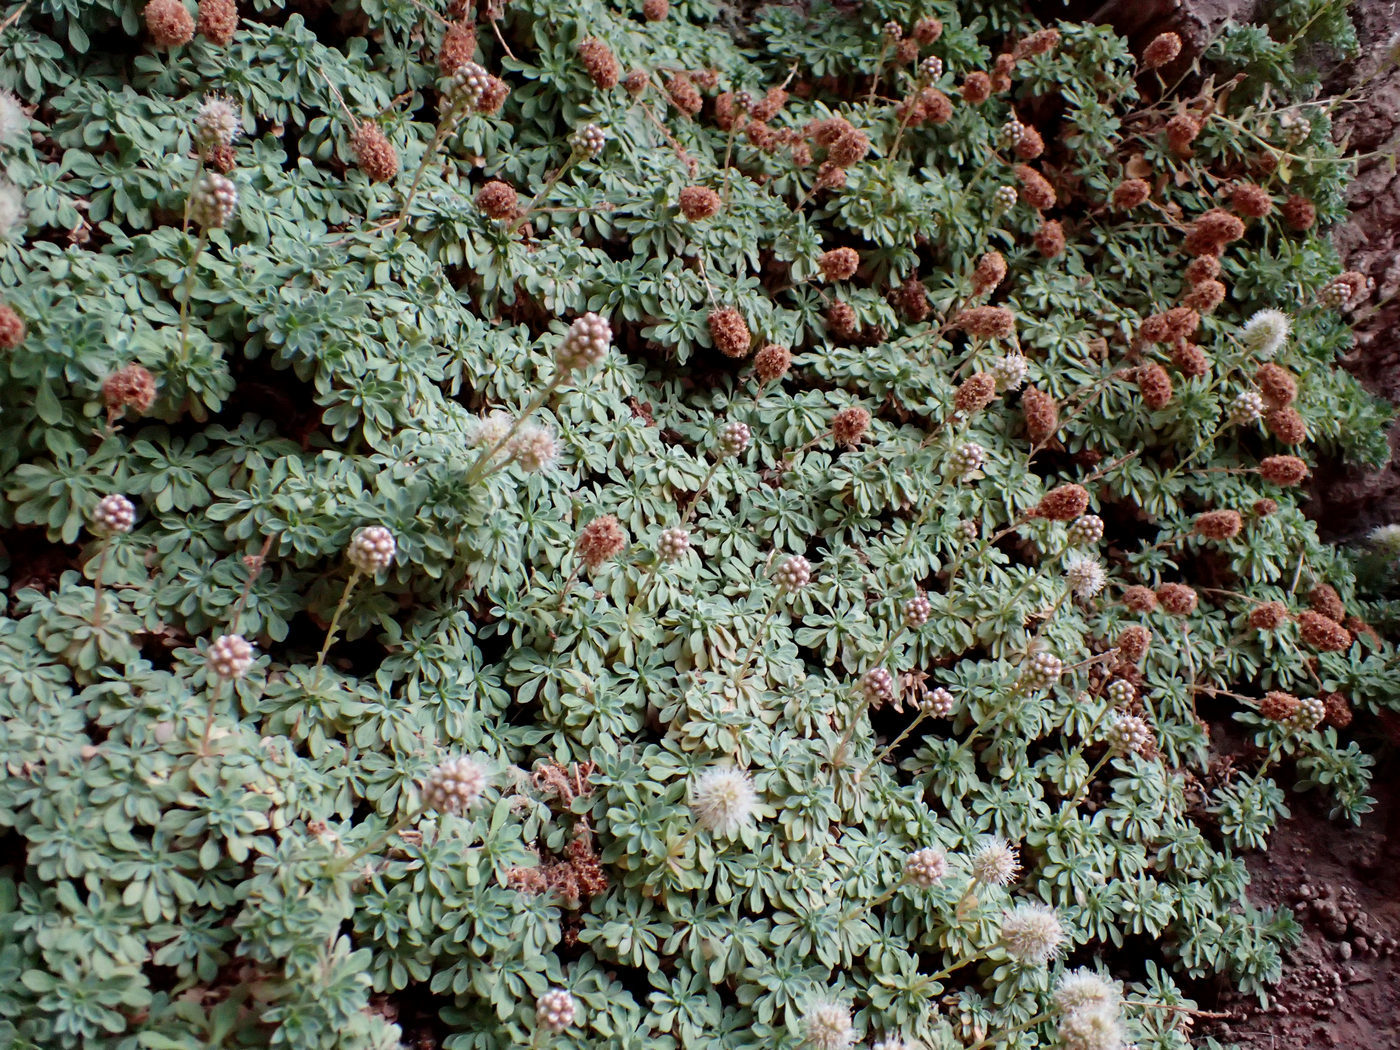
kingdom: Plantae
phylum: Tracheophyta
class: Magnoliopsida
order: Rosales
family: Rosaceae
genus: Petrophytum
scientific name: Petrophytum caespitosum
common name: Mat rockspirea
